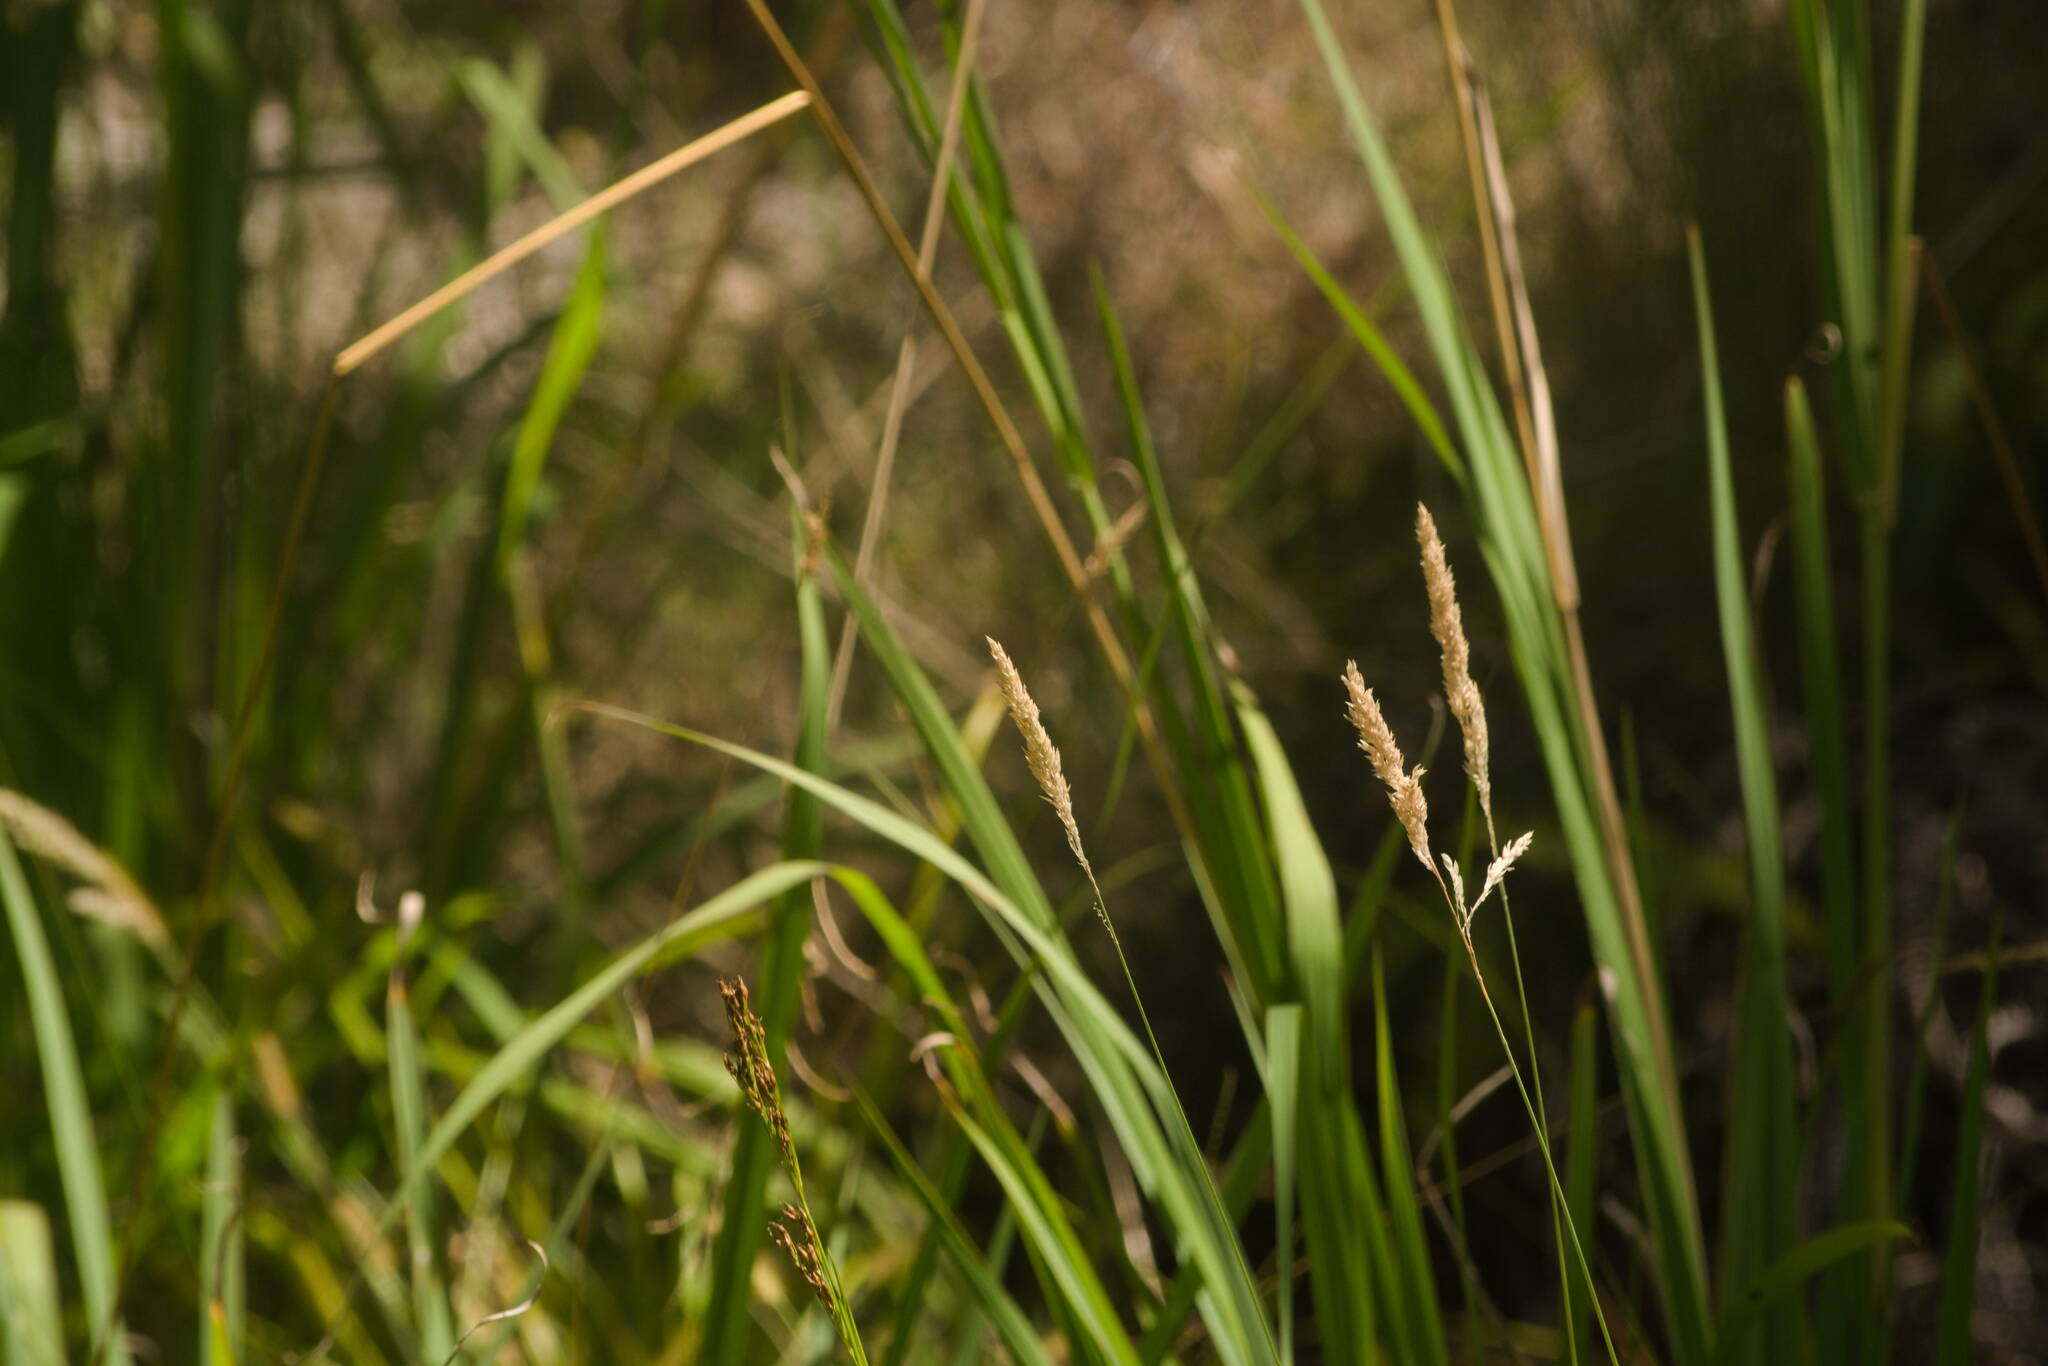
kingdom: Plantae
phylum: Tracheophyta
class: Liliopsida
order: Poales
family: Poaceae
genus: Holcus
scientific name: Holcus lanatus
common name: Yorkshire-fog
